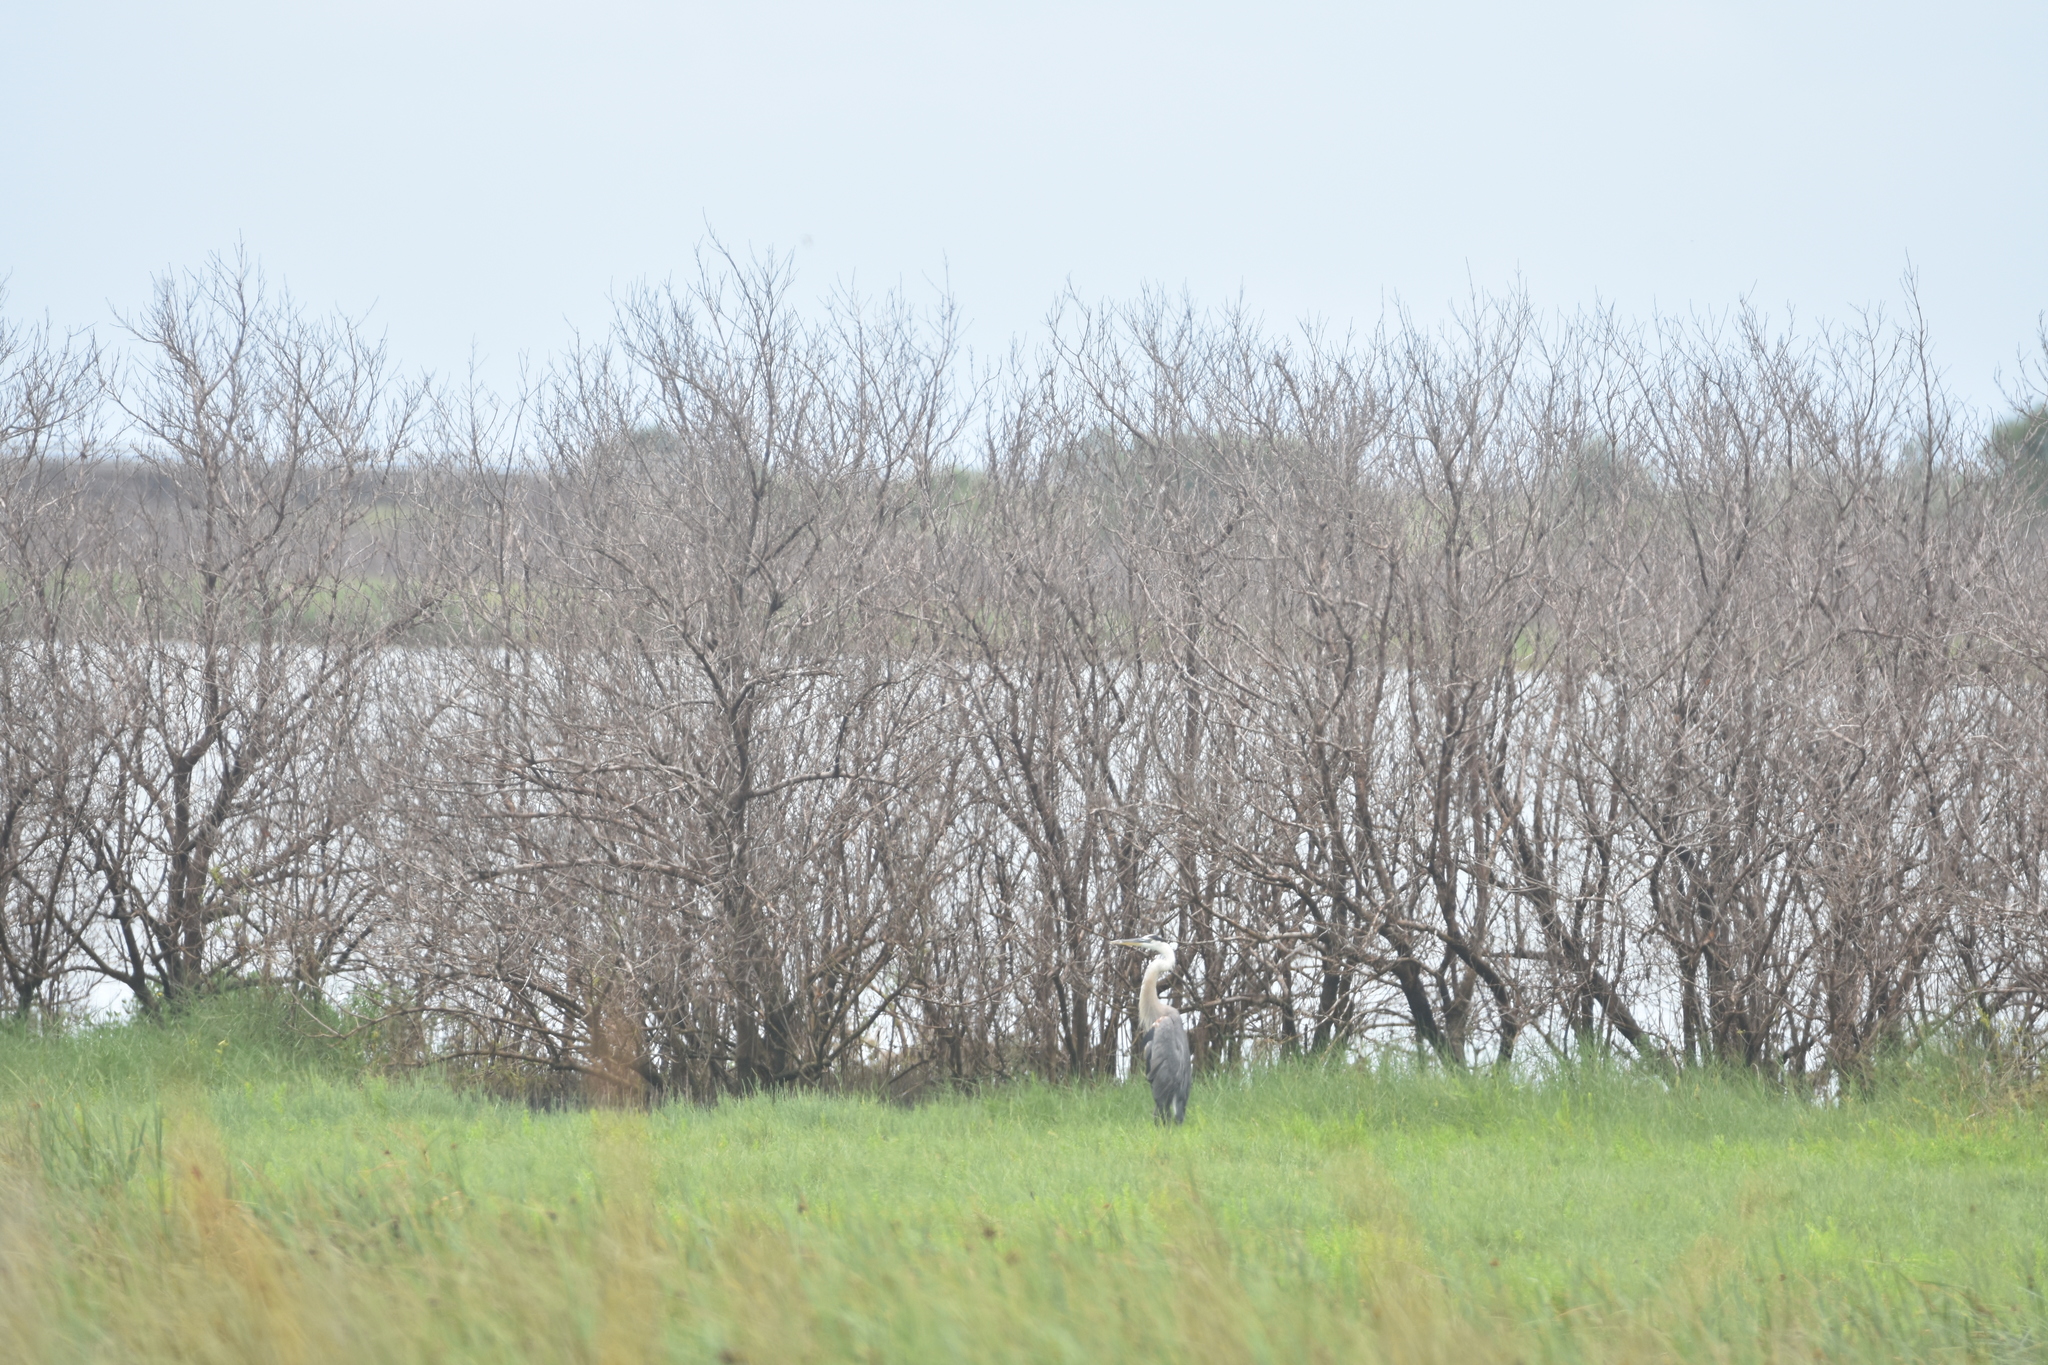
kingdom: Animalia
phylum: Chordata
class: Aves
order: Pelecaniformes
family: Ardeidae
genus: Ardea
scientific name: Ardea herodias
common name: Great blue heron
